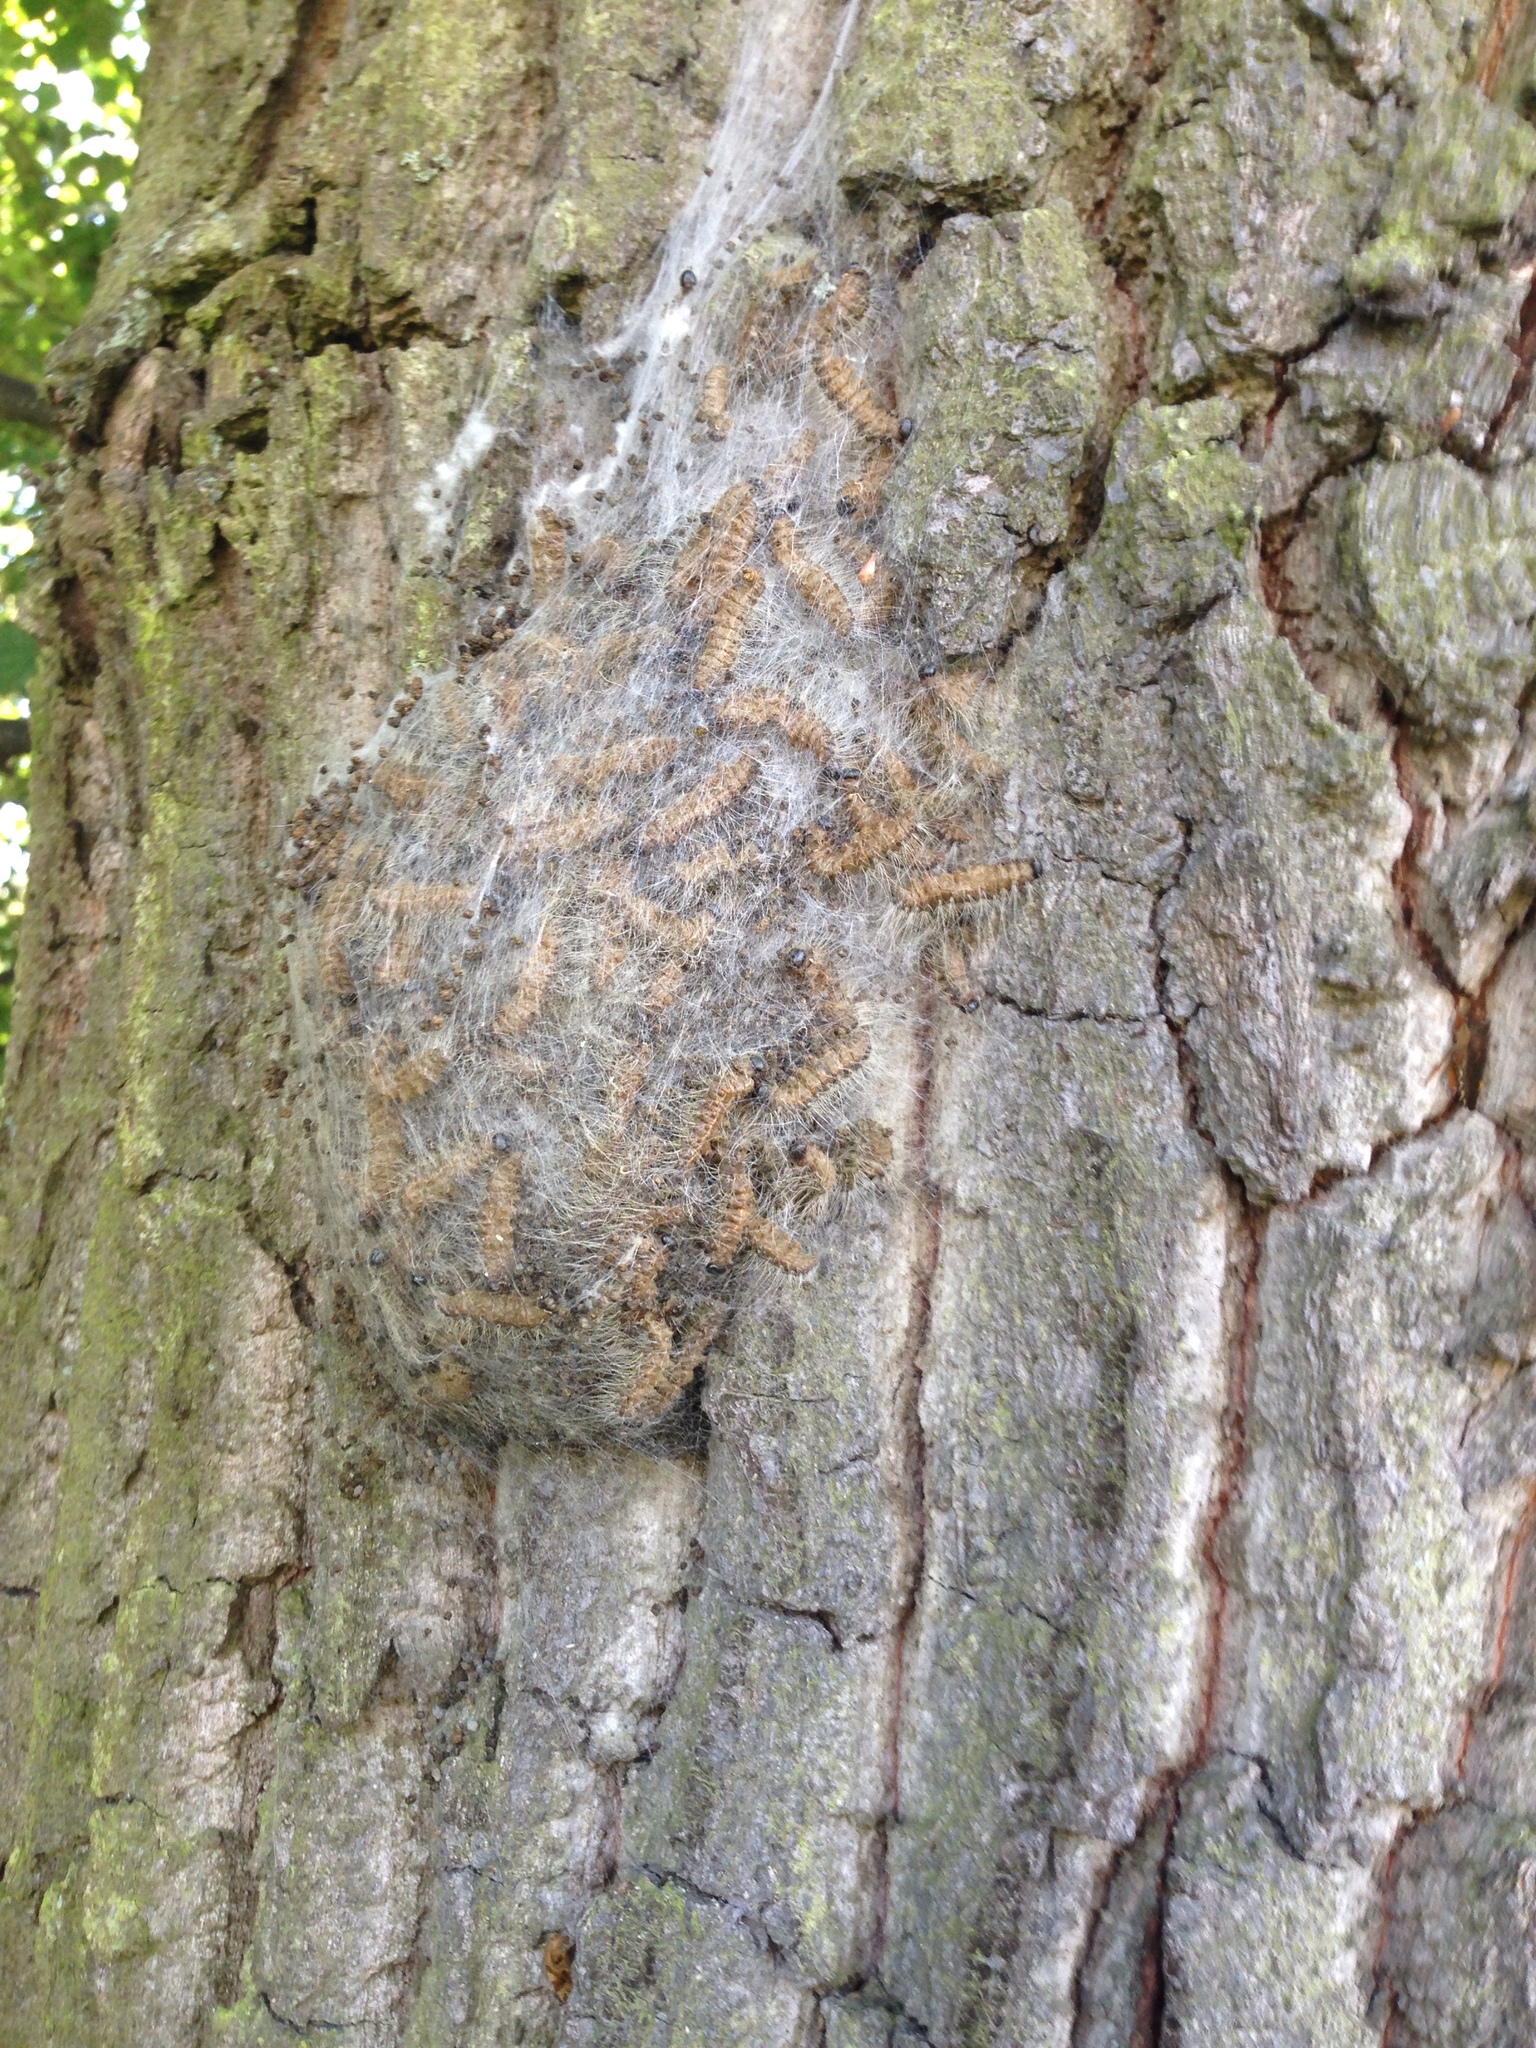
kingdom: Animalia
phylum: Arthropoda
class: Insecta
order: Lepidoptera
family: Notodontidae
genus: Thaumetopoea
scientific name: Thaumetopoea processionea
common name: Oak processionea
